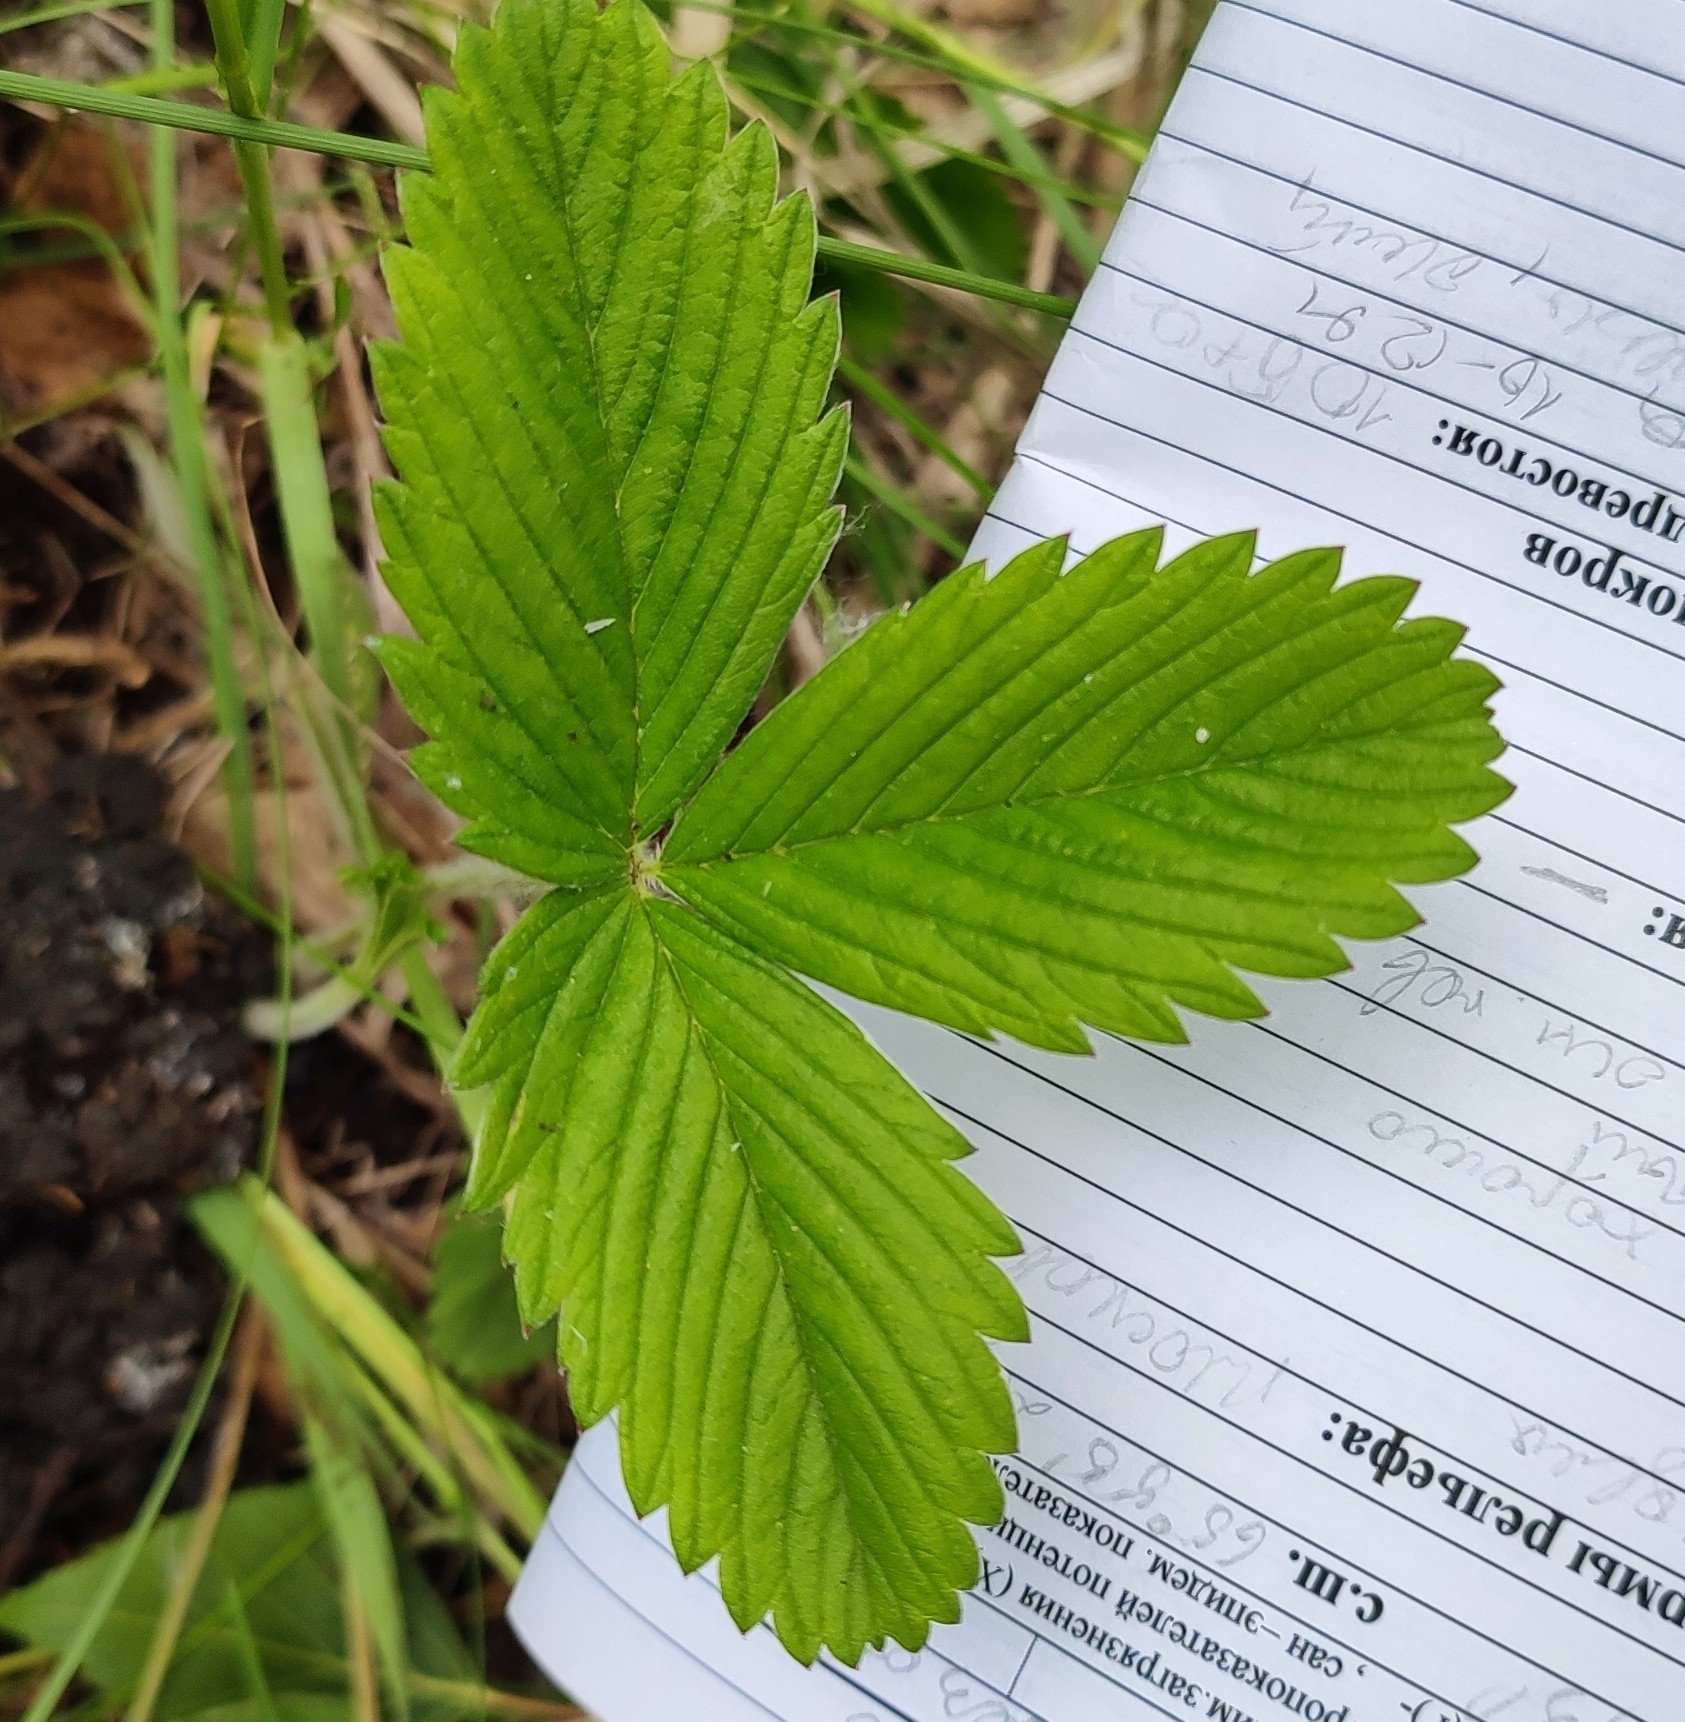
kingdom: Plantae
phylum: Tracheophyta
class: Magnoliopsida
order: Rosales
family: Rosaceae
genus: Fragaria
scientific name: Fragaria viridis
